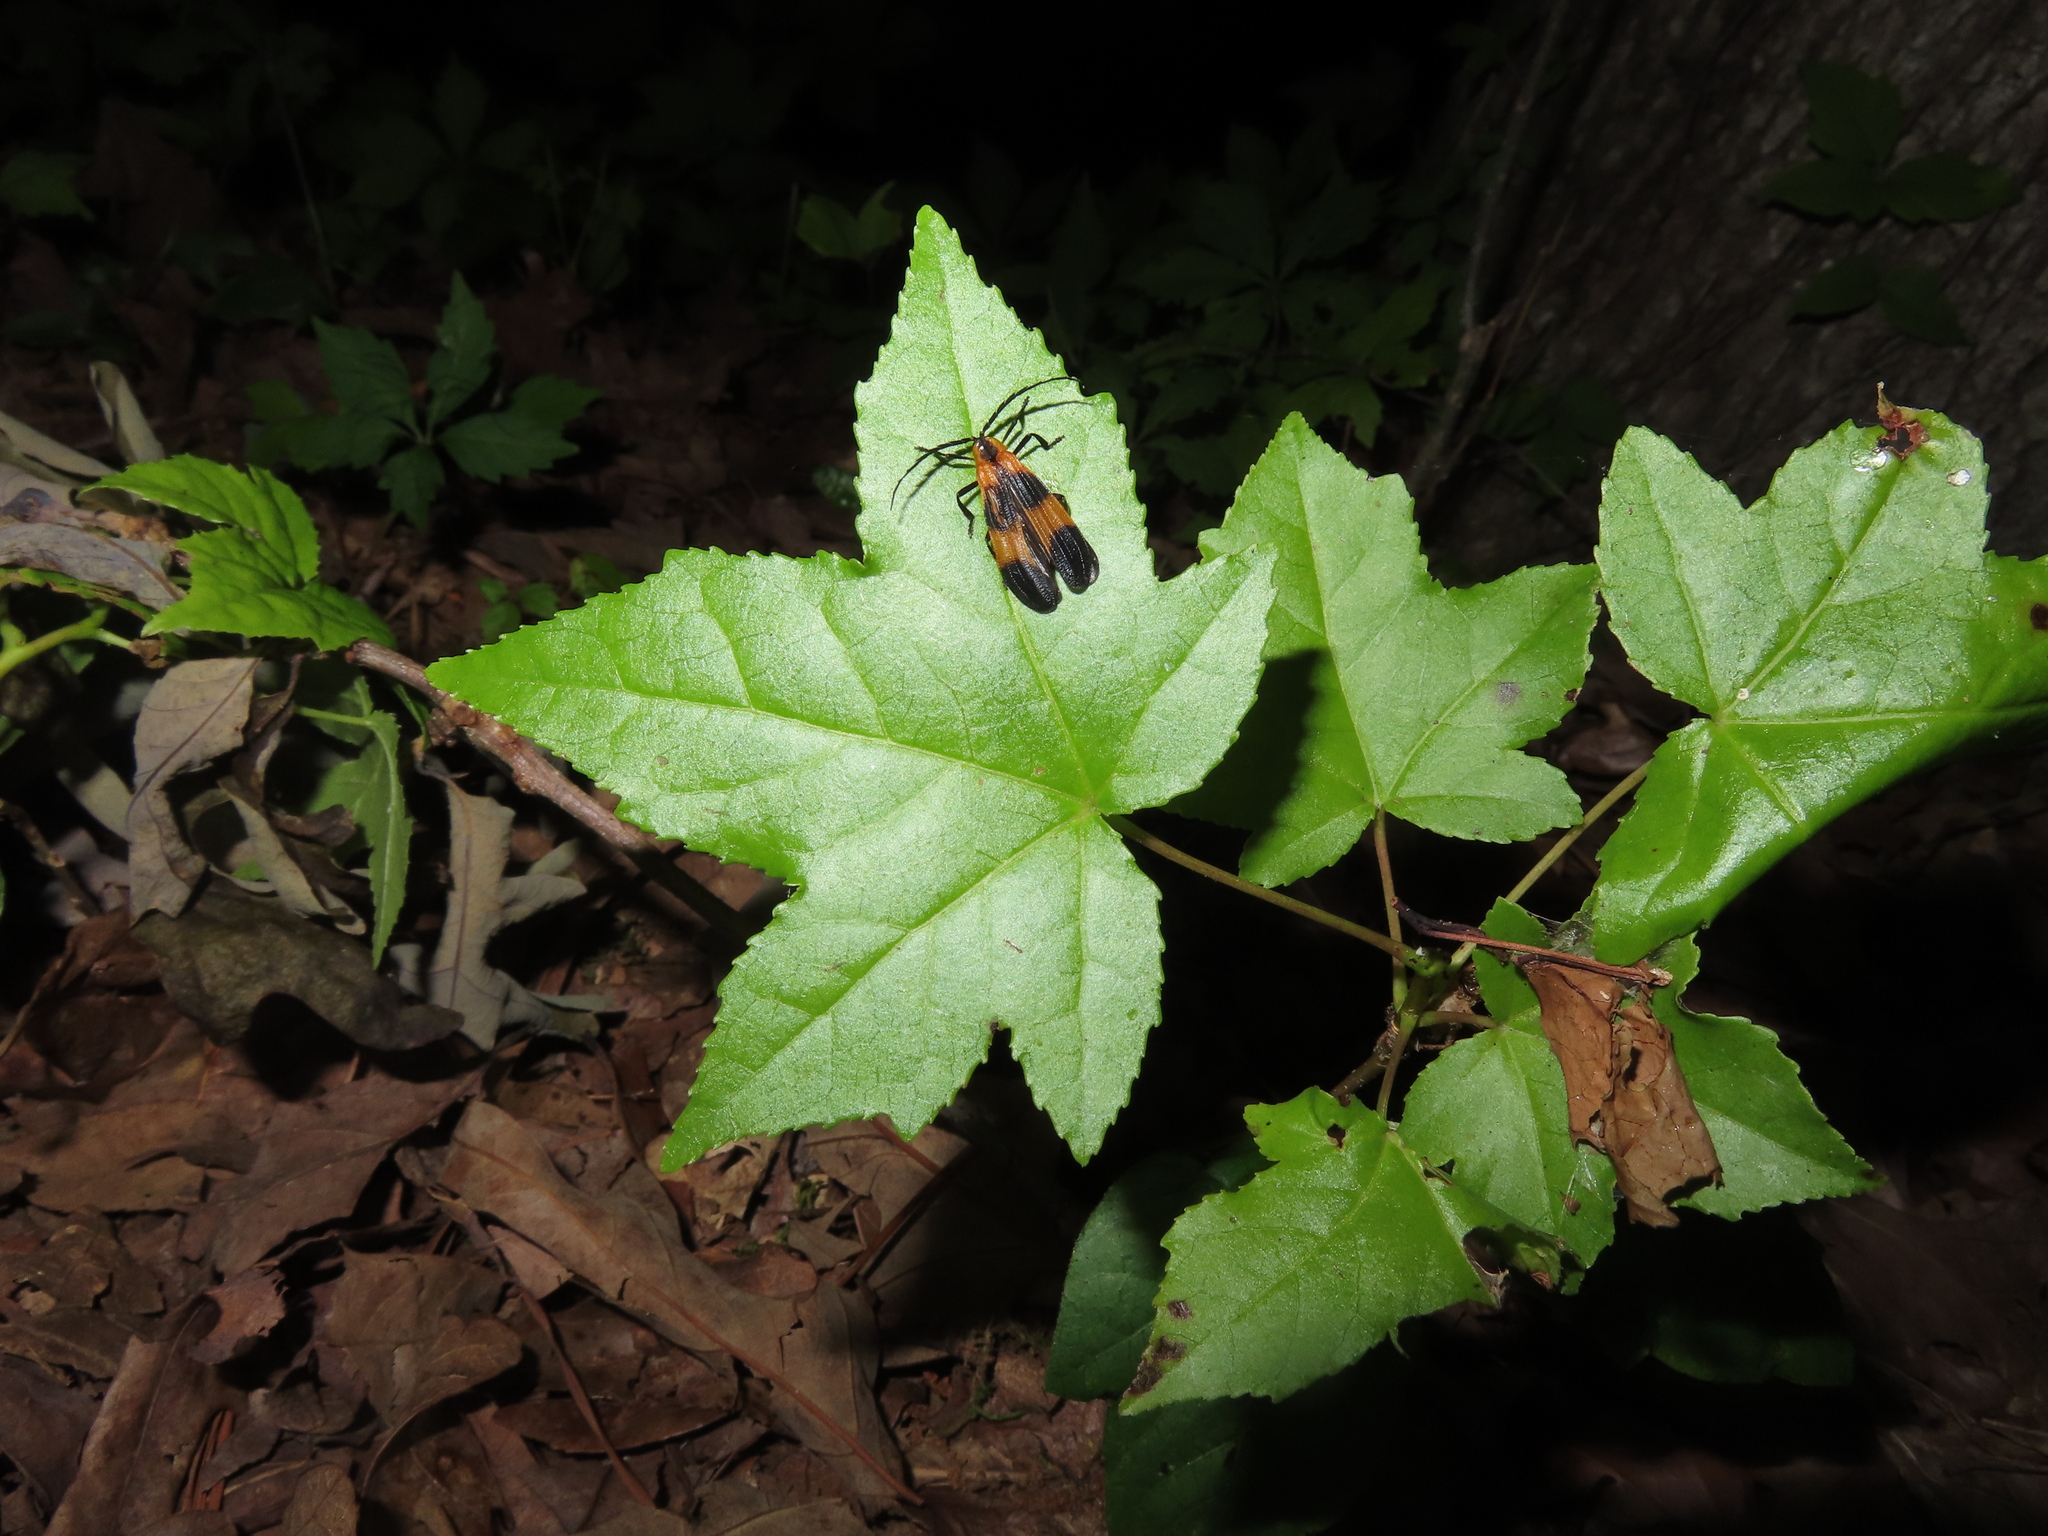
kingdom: Plantae
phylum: Tracheophyta
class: Magnoliopsida
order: Saxifragales
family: Altingiaceae
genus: Liquidambar
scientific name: Liquidambar styraciflua
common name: Sweet gum
